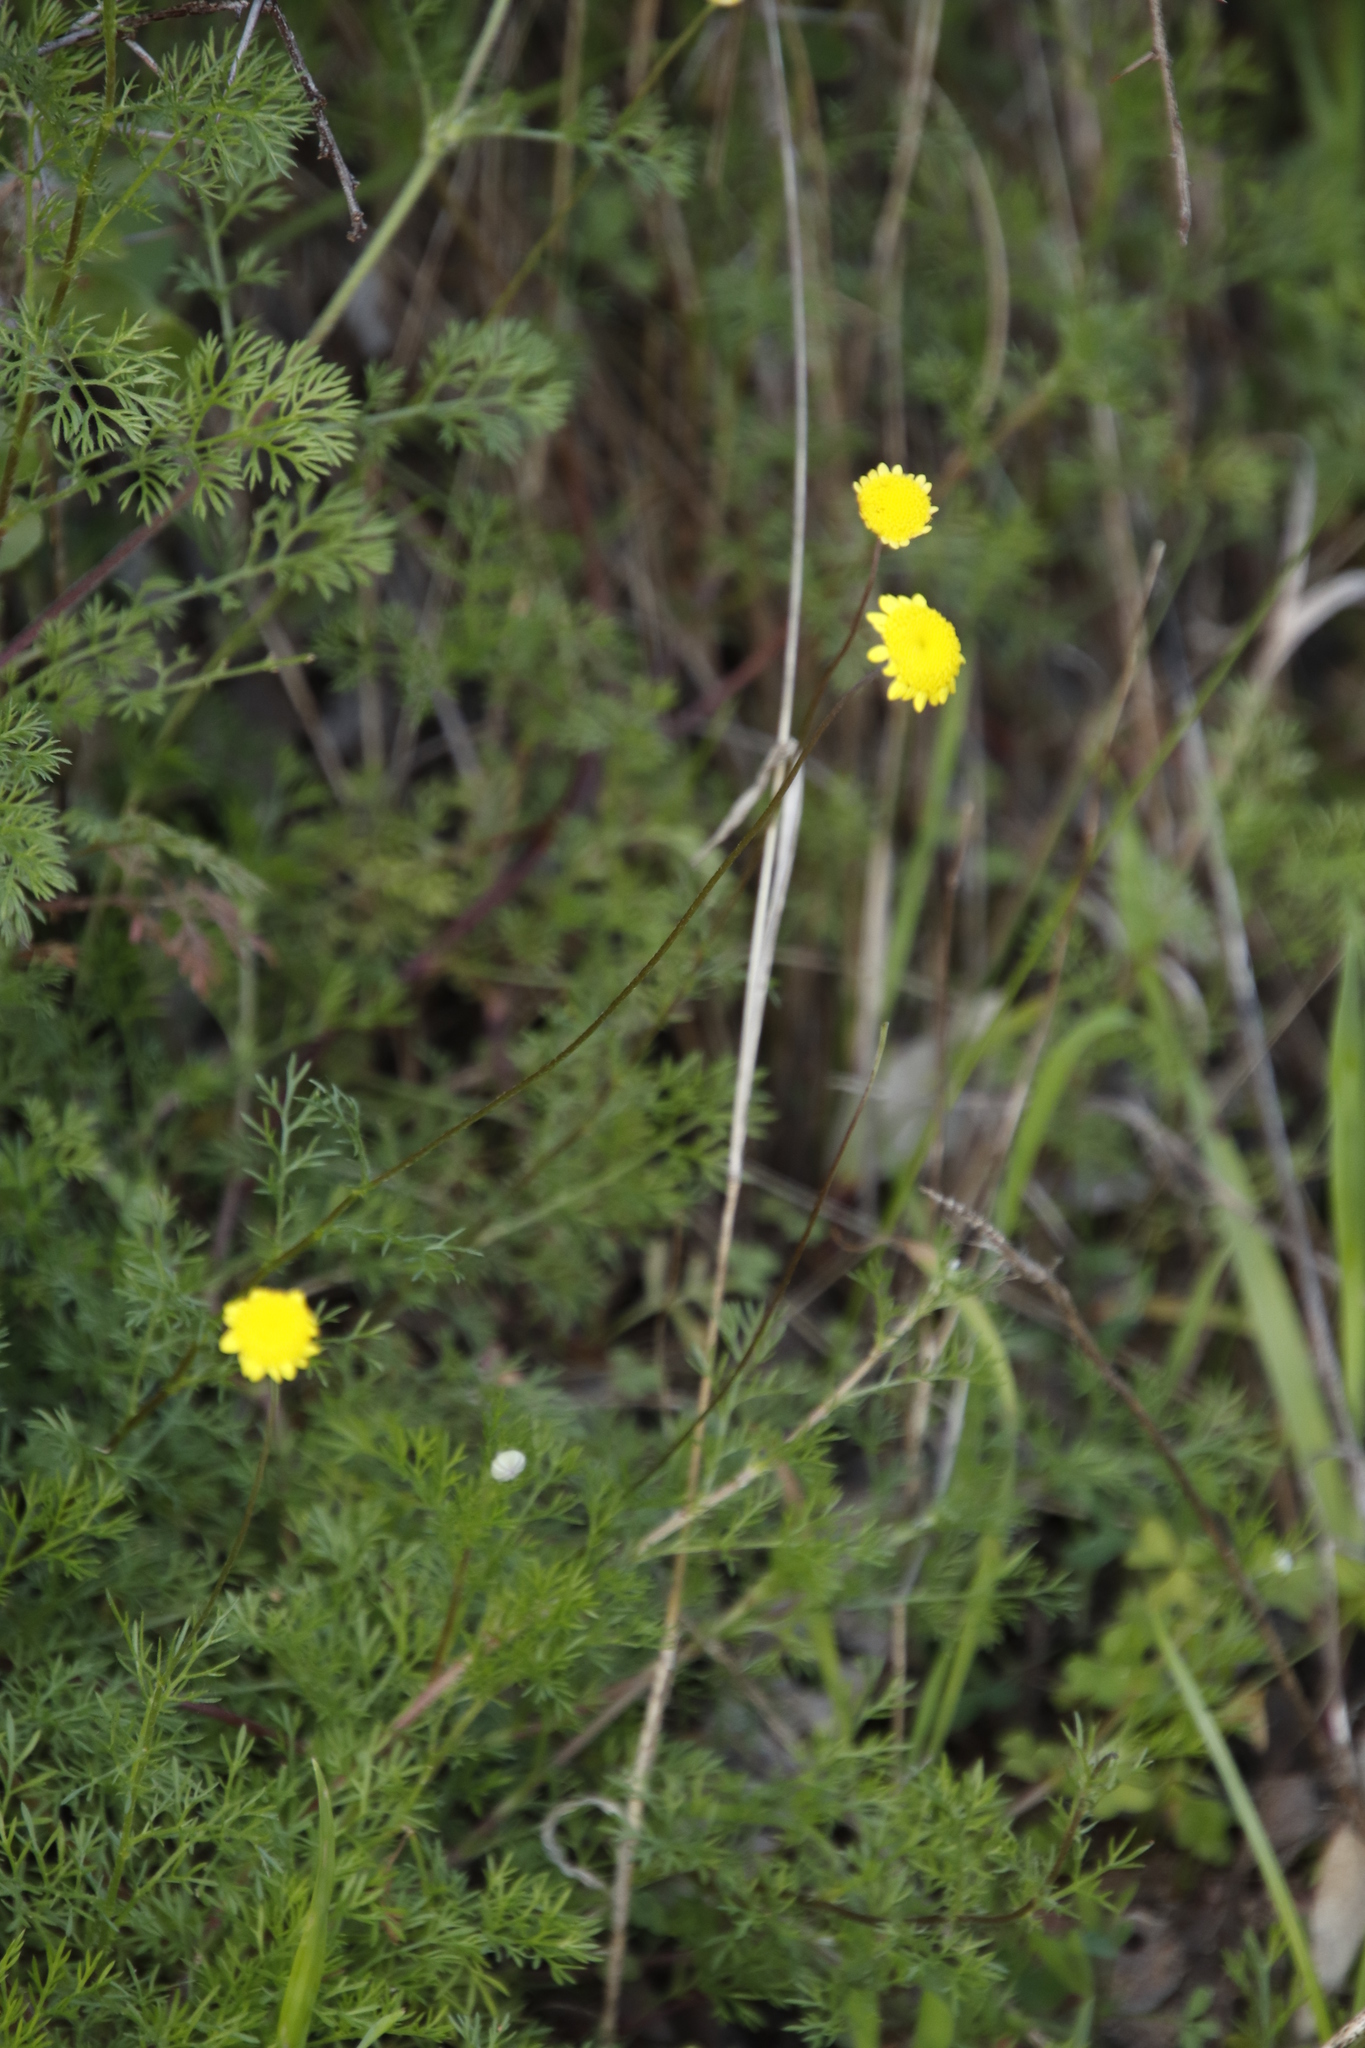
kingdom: Plantae
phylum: Tracheophyta
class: Magnoliopsida
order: Asterales
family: Asteraceae
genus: Cotula
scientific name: Cotula pruinosa
